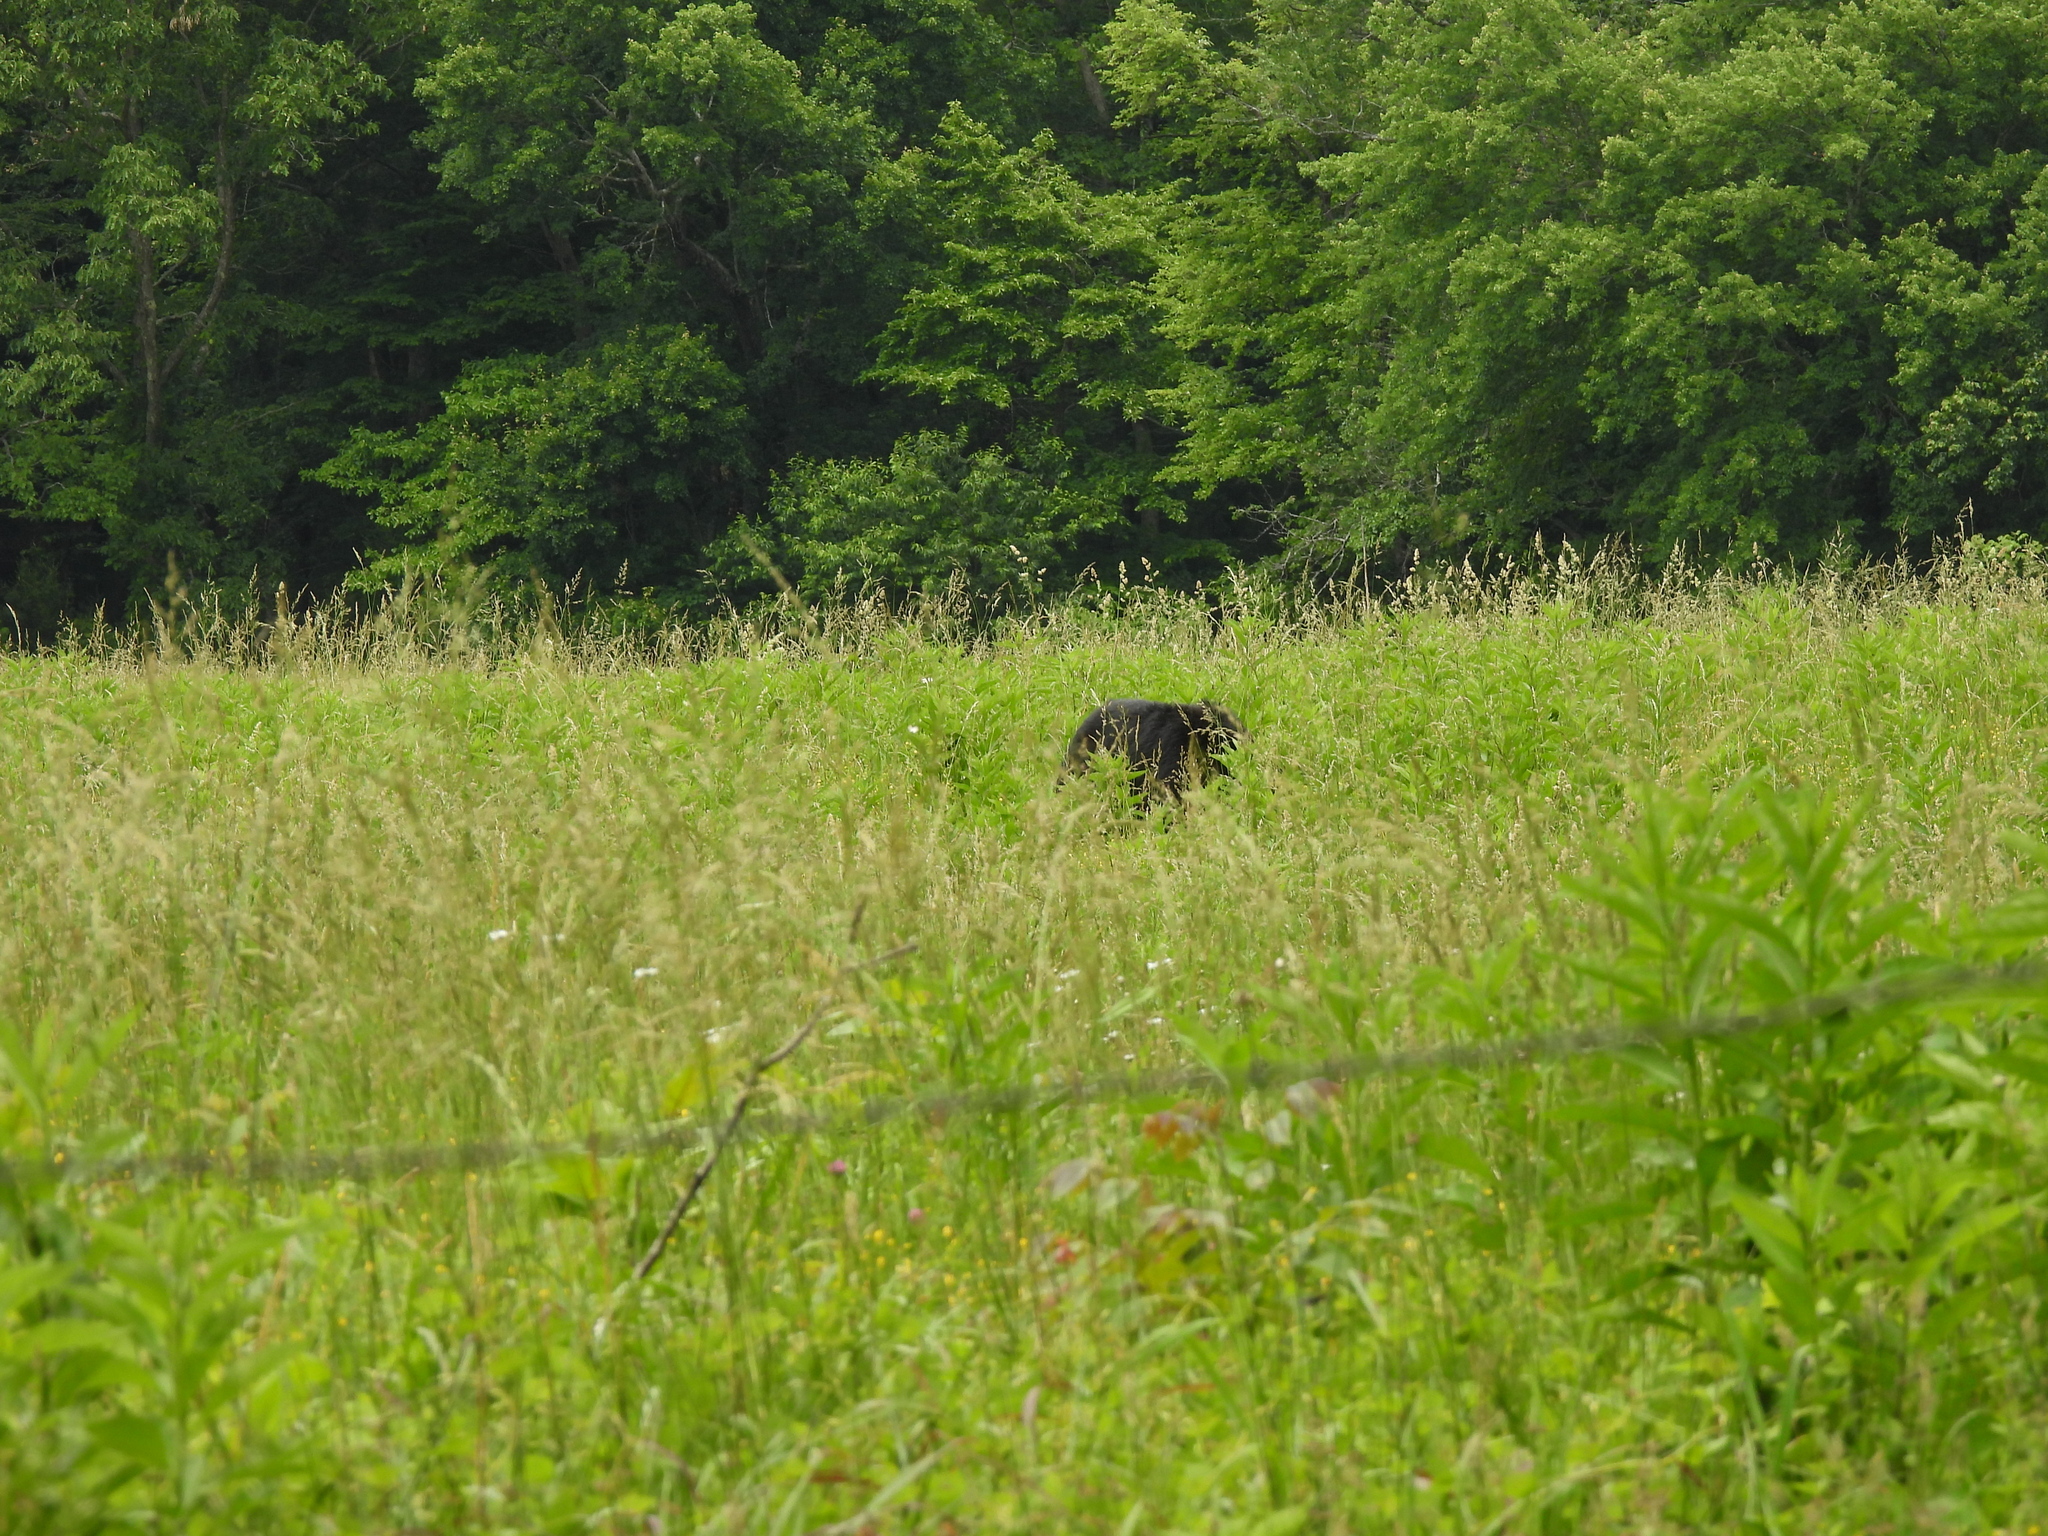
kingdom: Animalia
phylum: Chordata
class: Mammalia
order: Carnivora
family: Ursidae
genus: Ursus
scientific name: Ursus americanus
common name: American black bear
